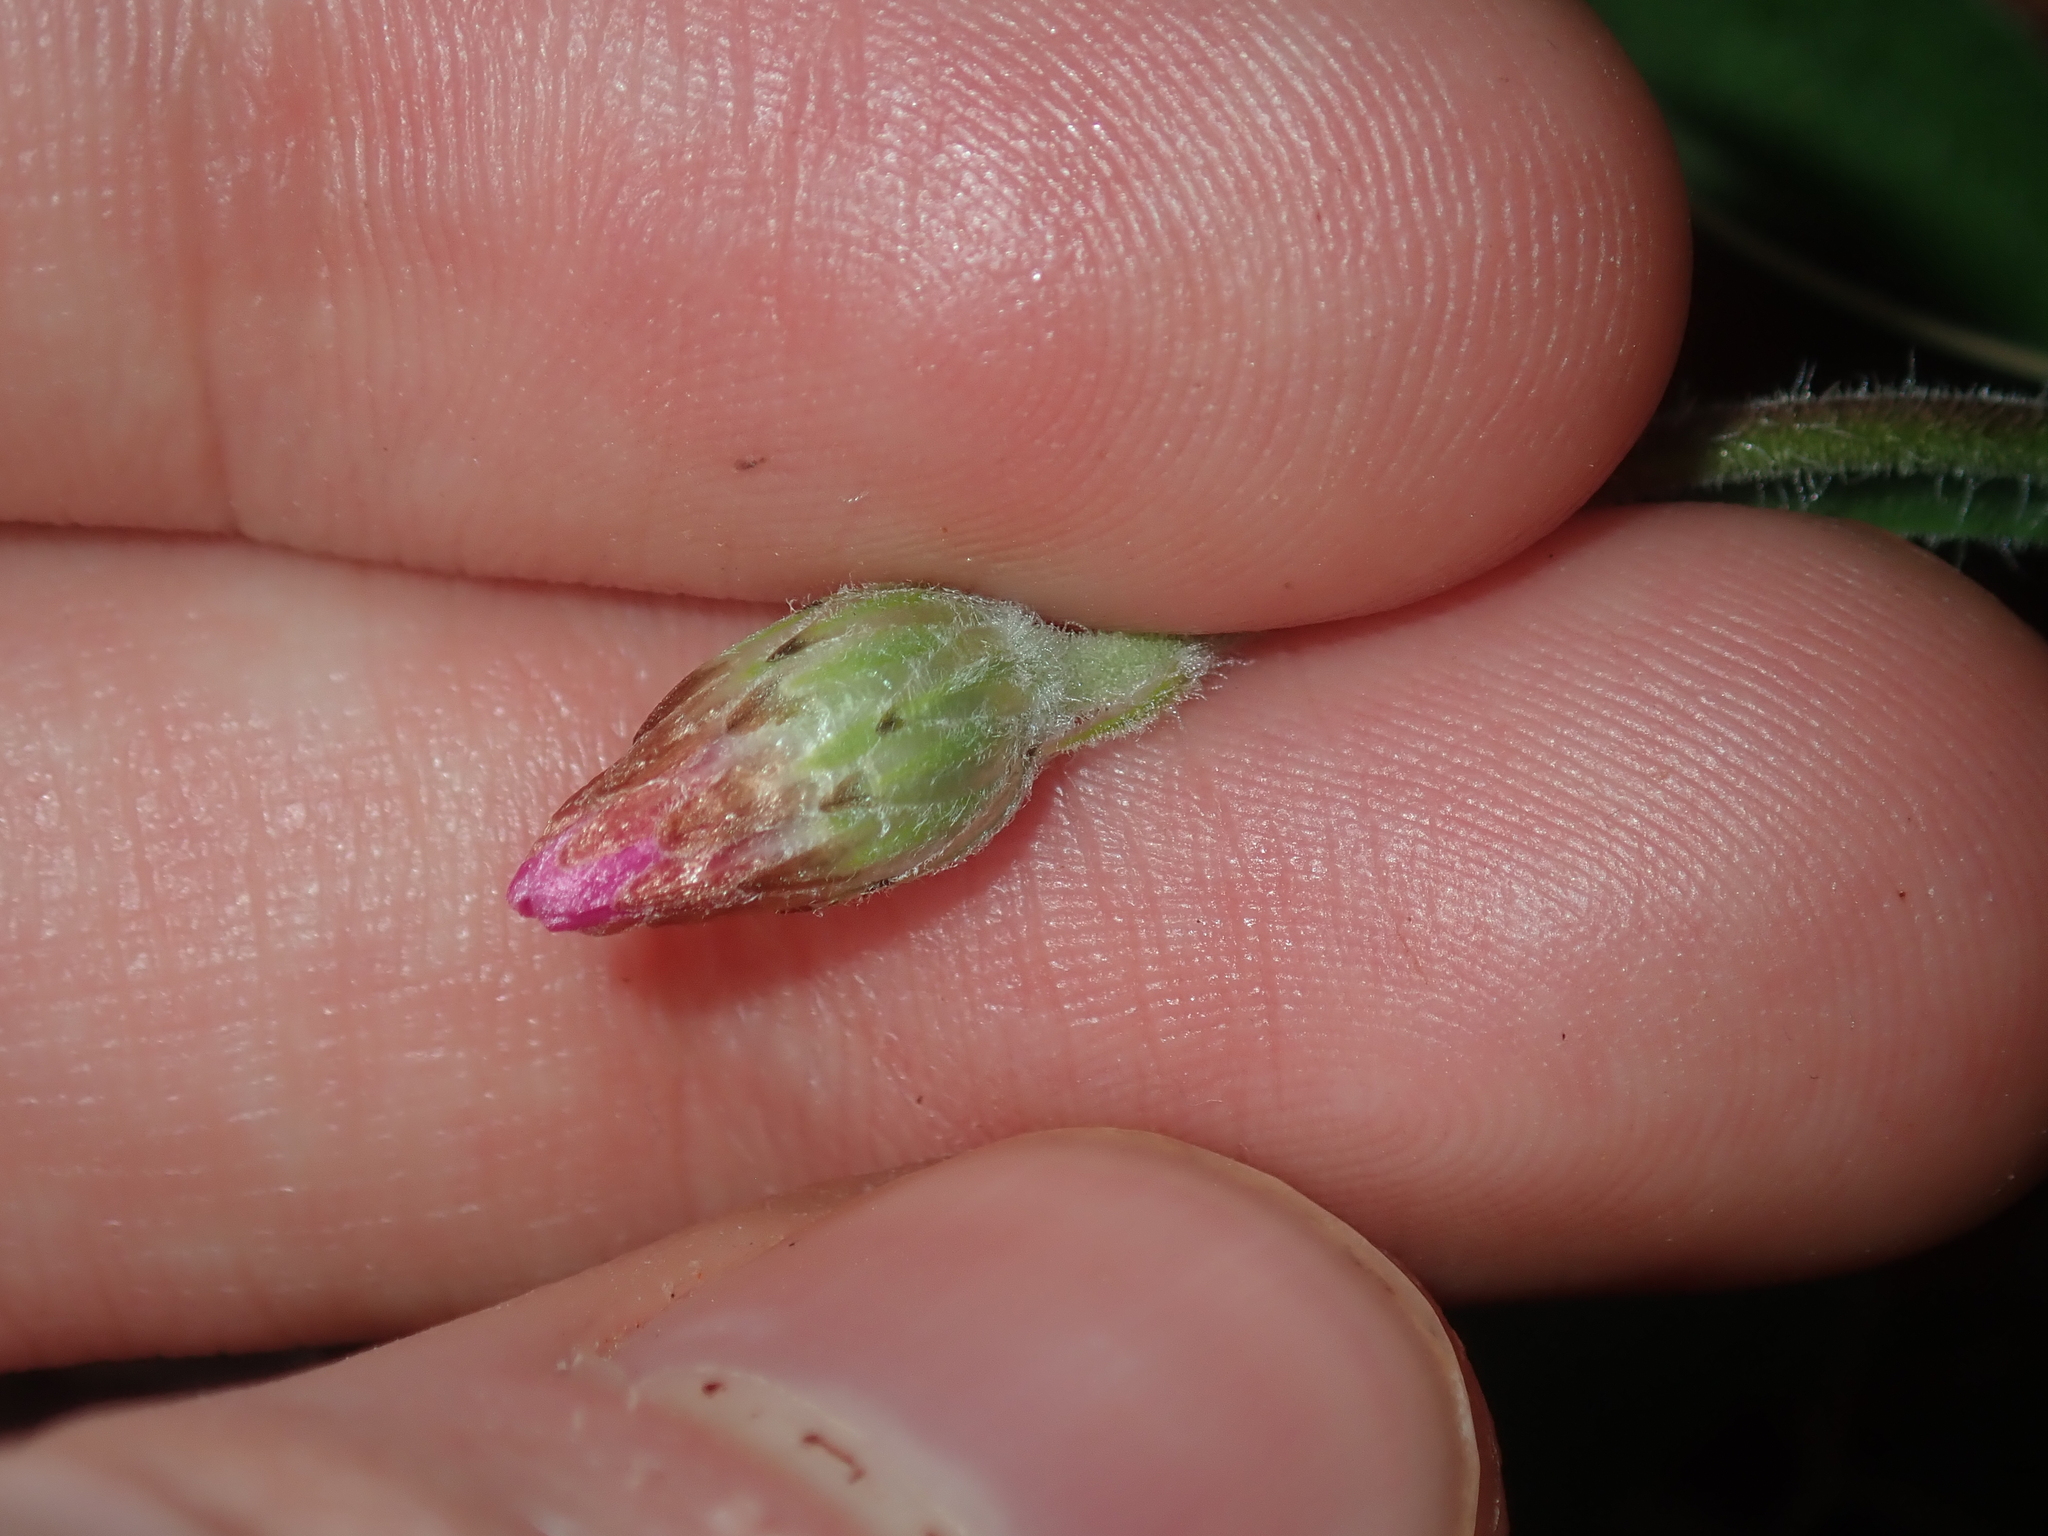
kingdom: Plantae
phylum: Tracheophyta
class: Magnoliopsida
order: Asterales
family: Asteraceae
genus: Lawrencella
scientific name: Lawrencella davenportii
